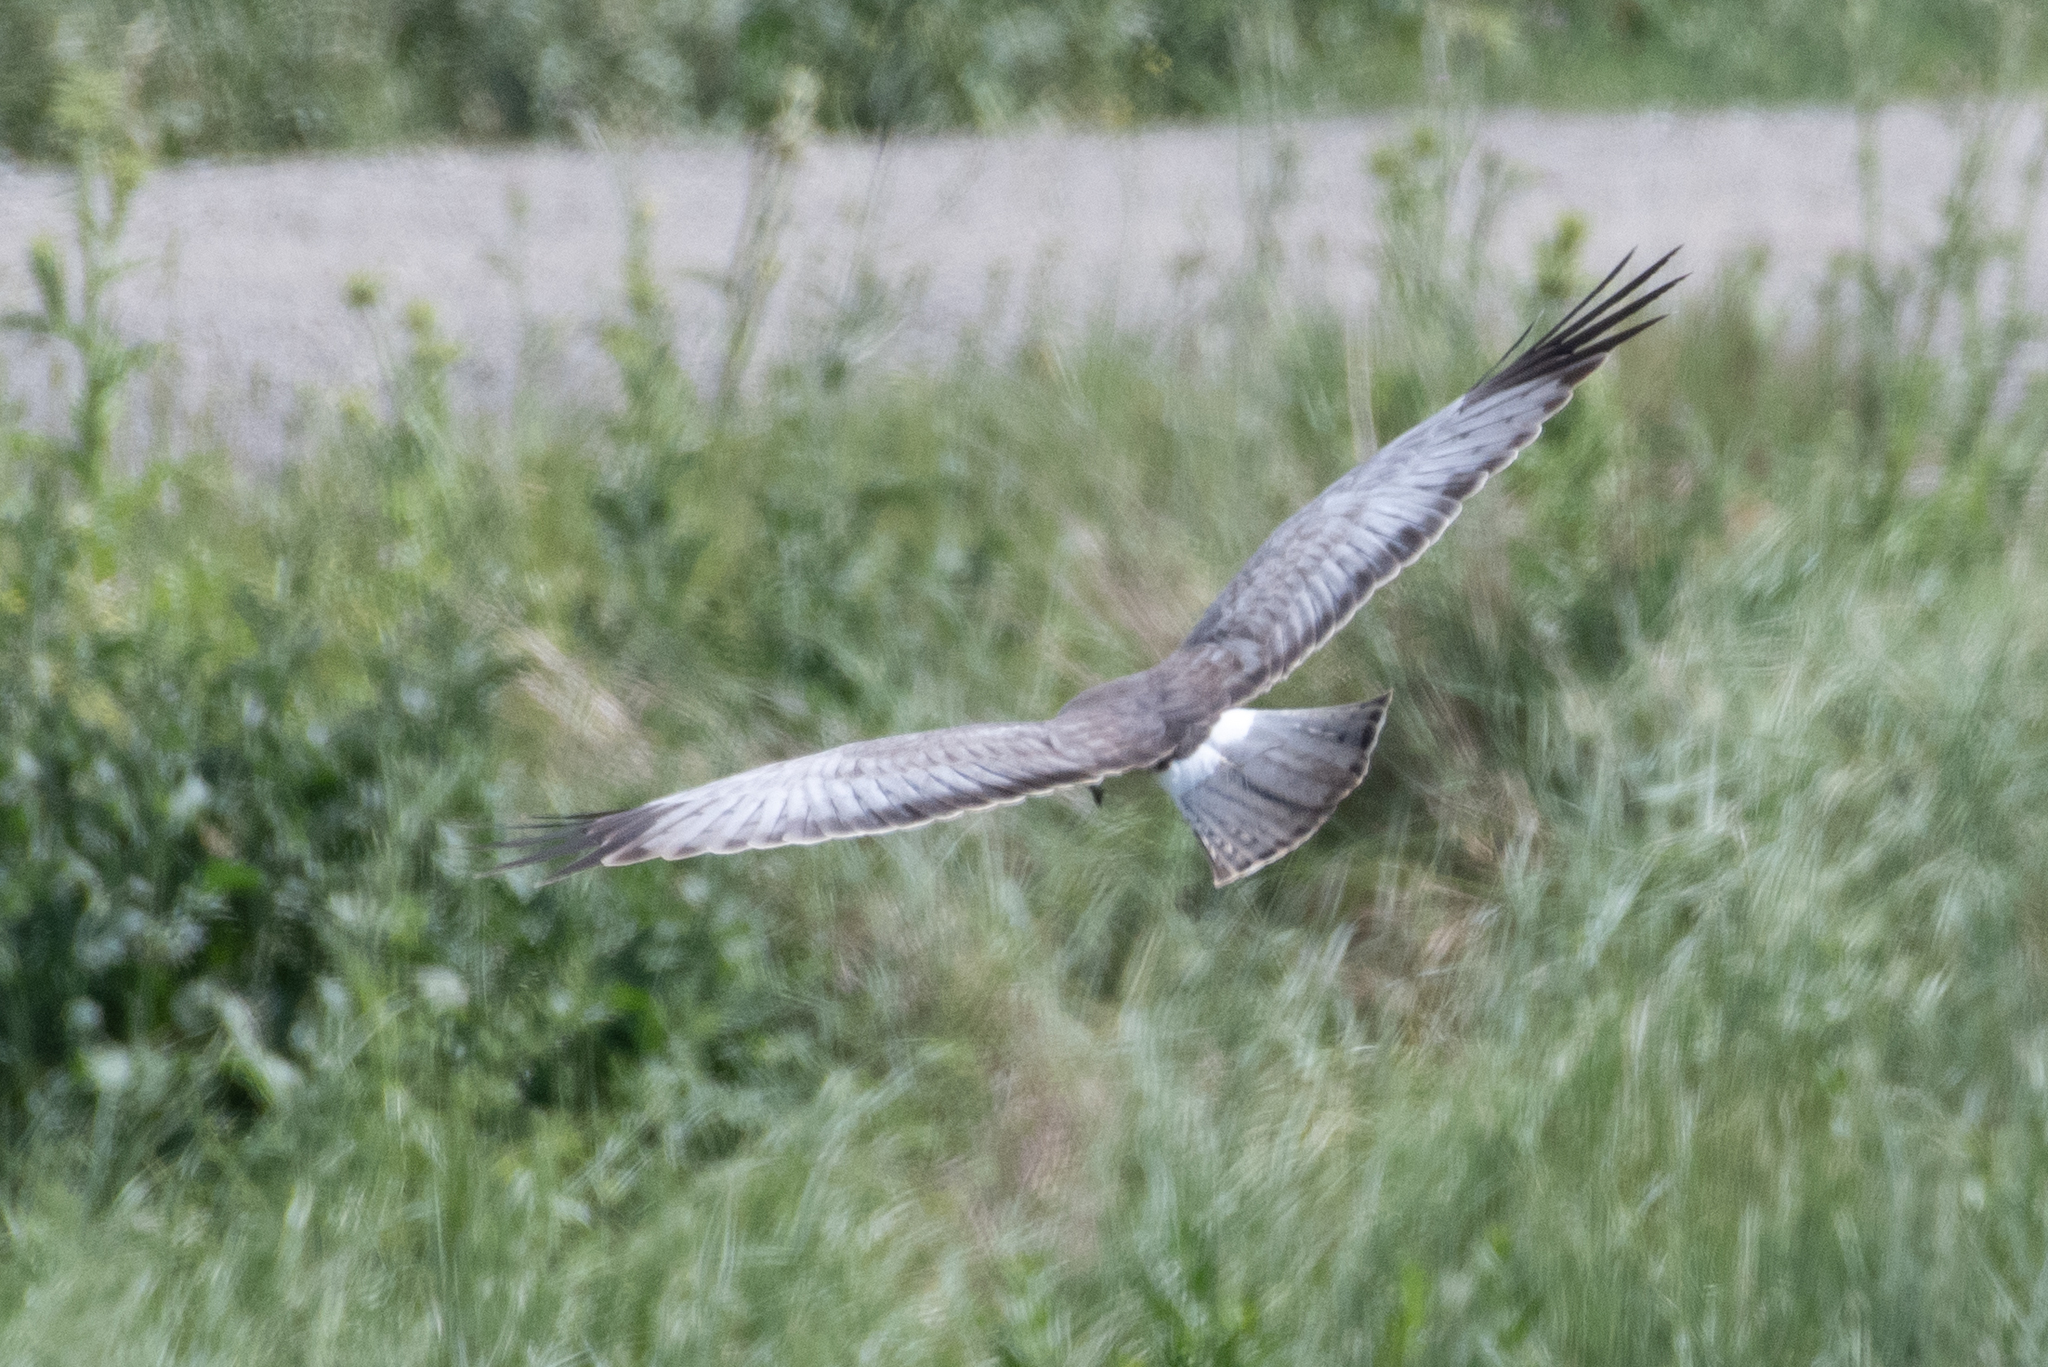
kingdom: Animalia
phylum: Chordata
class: Aves
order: Accipitriformes
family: Accipitridae
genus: Circus
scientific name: Circus cyaneus
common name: Hen harrier
